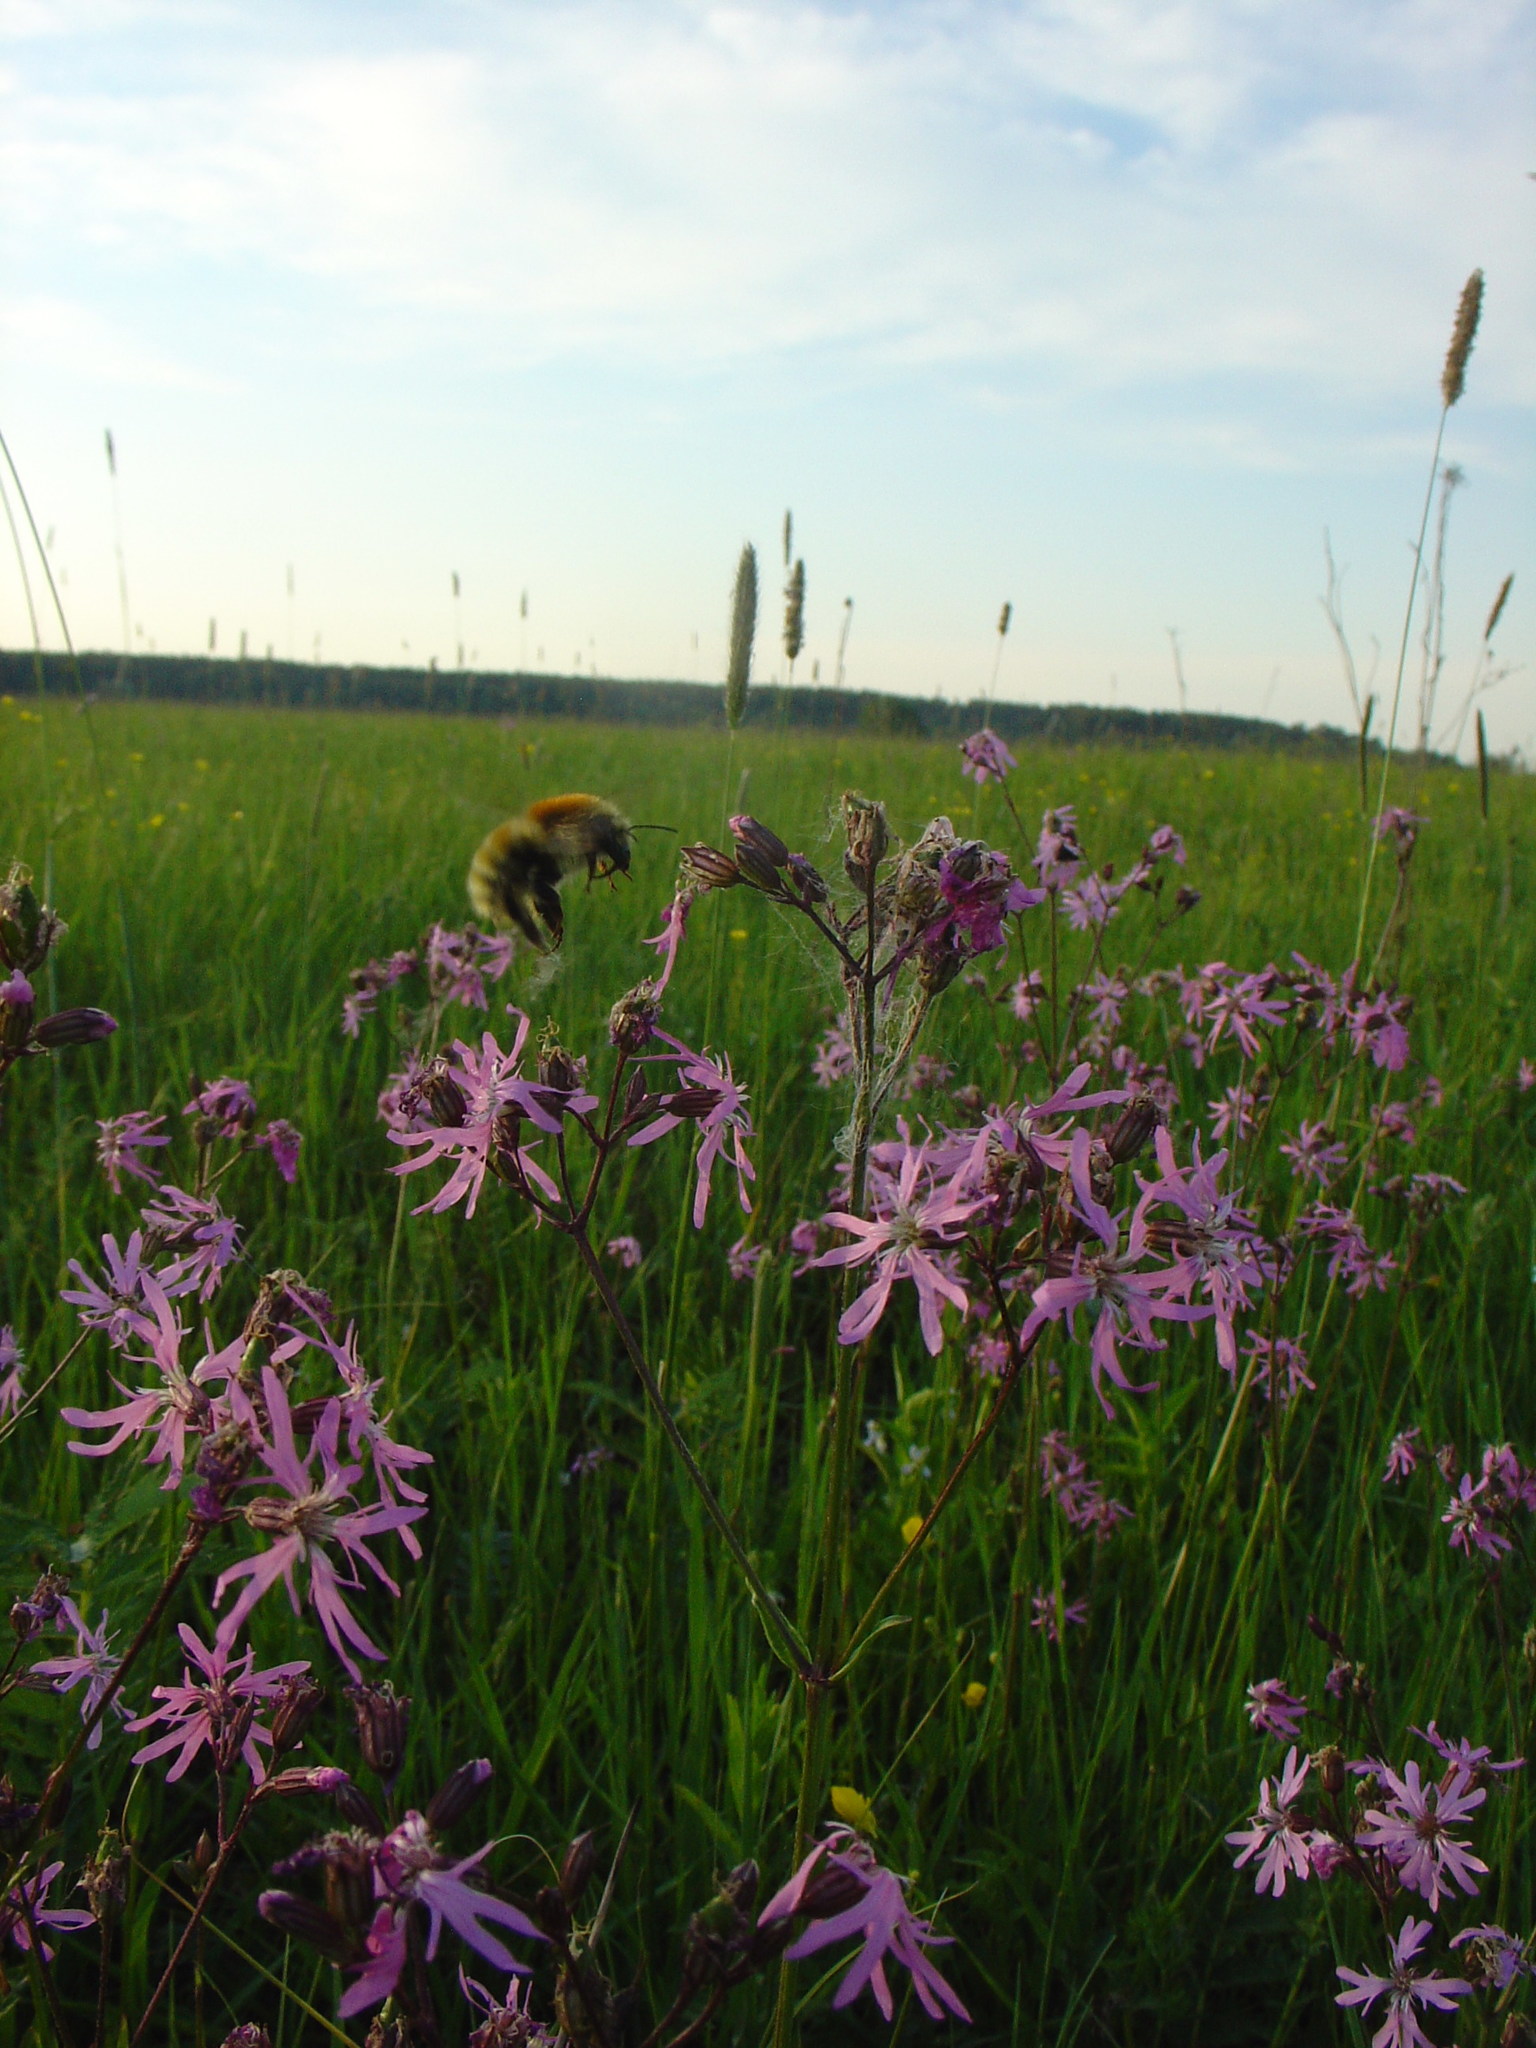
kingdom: Plantae
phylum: Tracheophyta
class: Magnoliopsida
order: Caryophyllales
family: Caryophyllaceae
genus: Silene
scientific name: Silene flos-cuculi
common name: Ragged-robin
